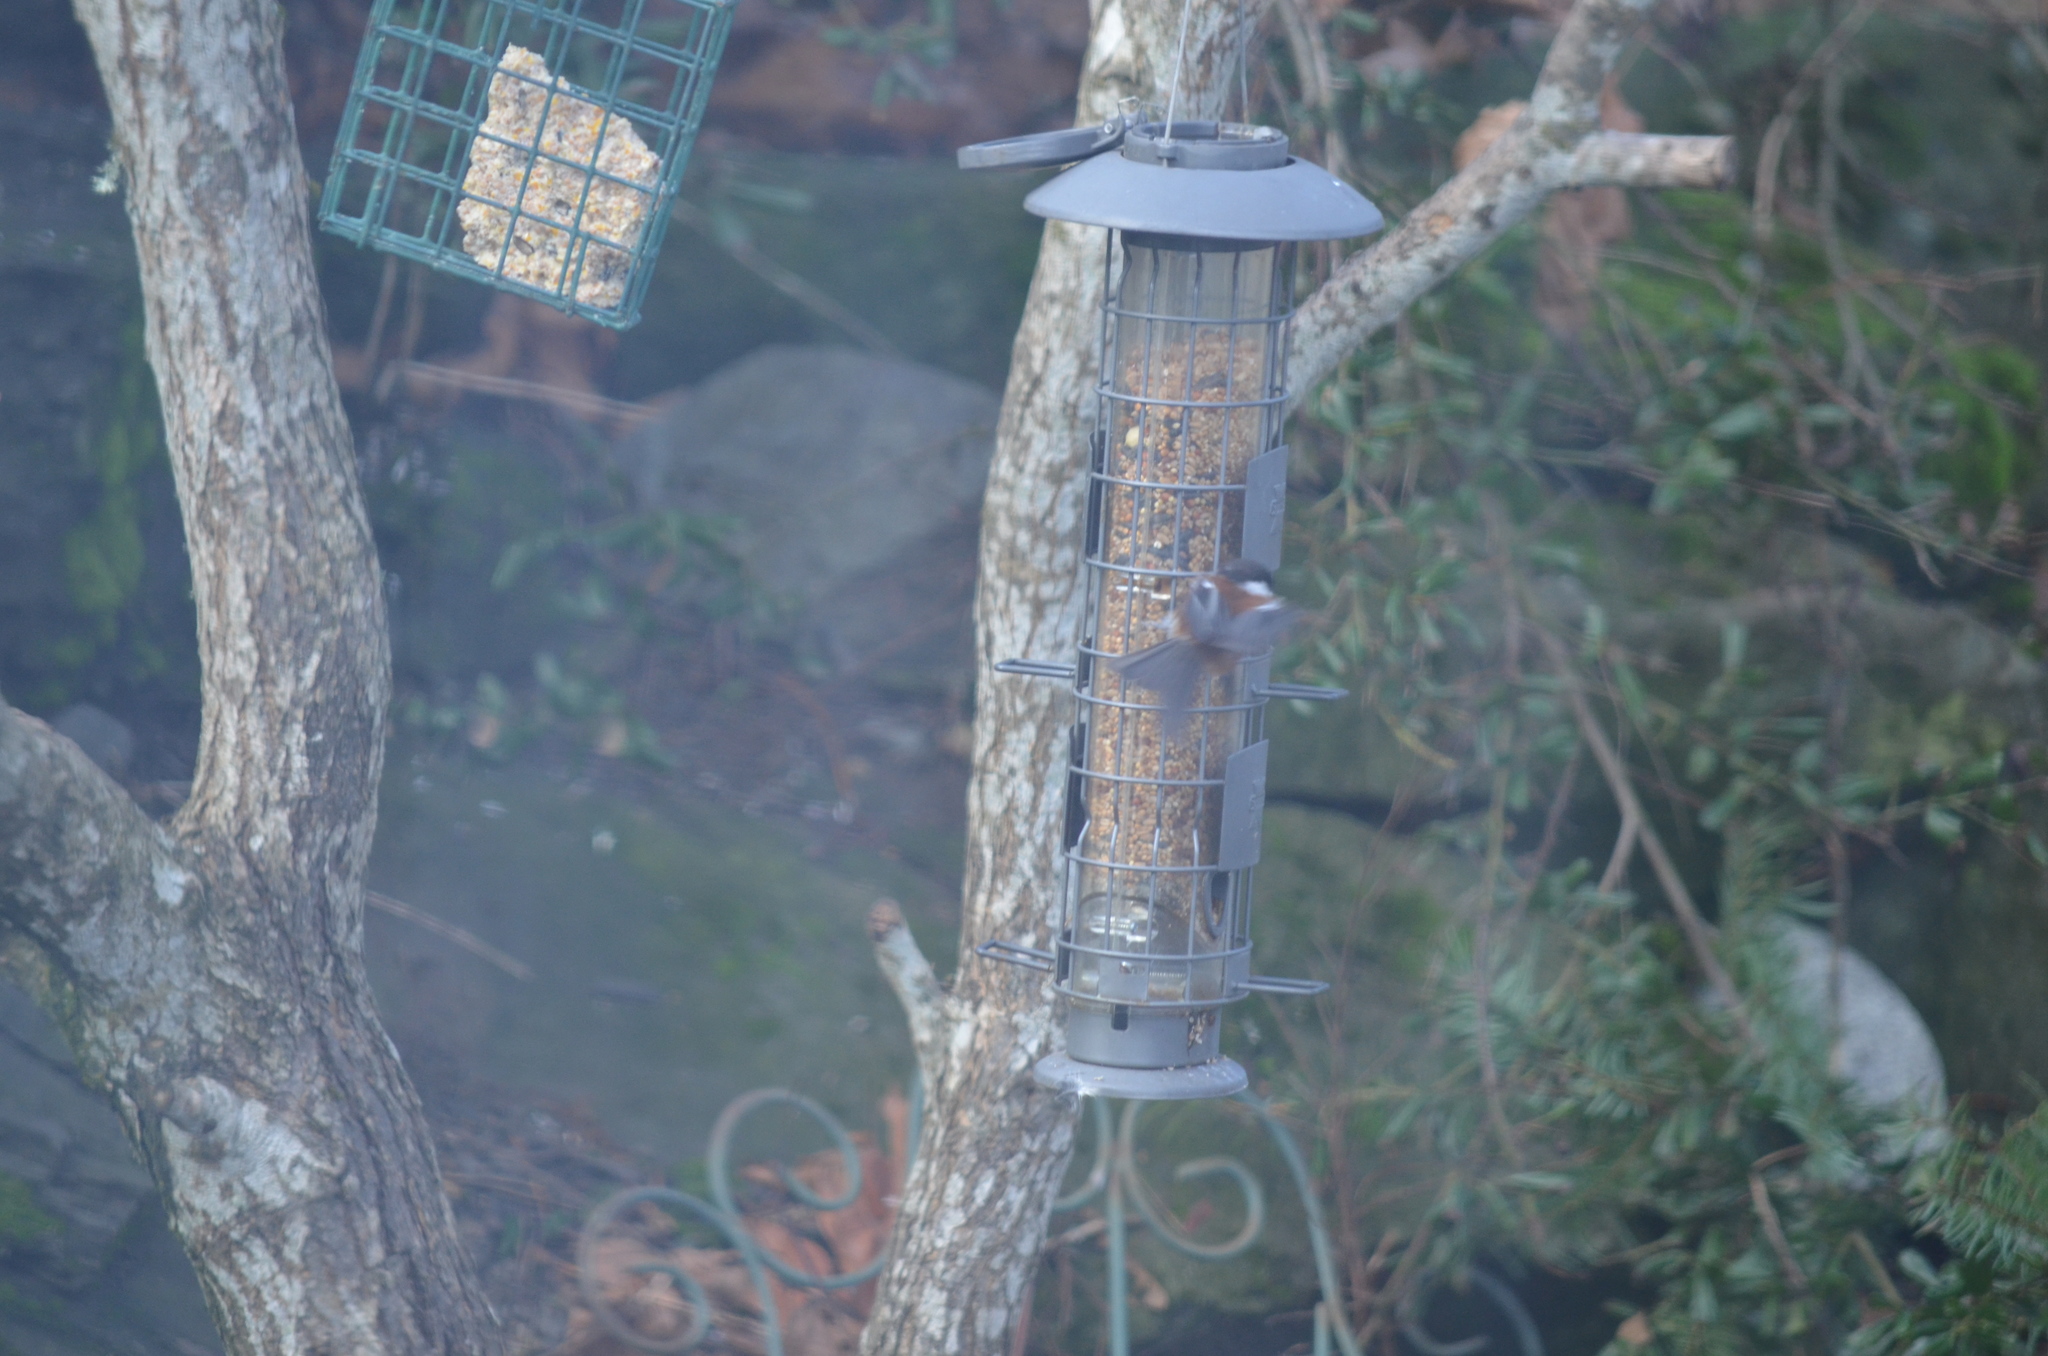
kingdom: Animalia
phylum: Chordata
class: Aves
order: Passeriformes
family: Paridae
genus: Poecile
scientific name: Poecile rufescens
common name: Chestnut-backed chickadee
